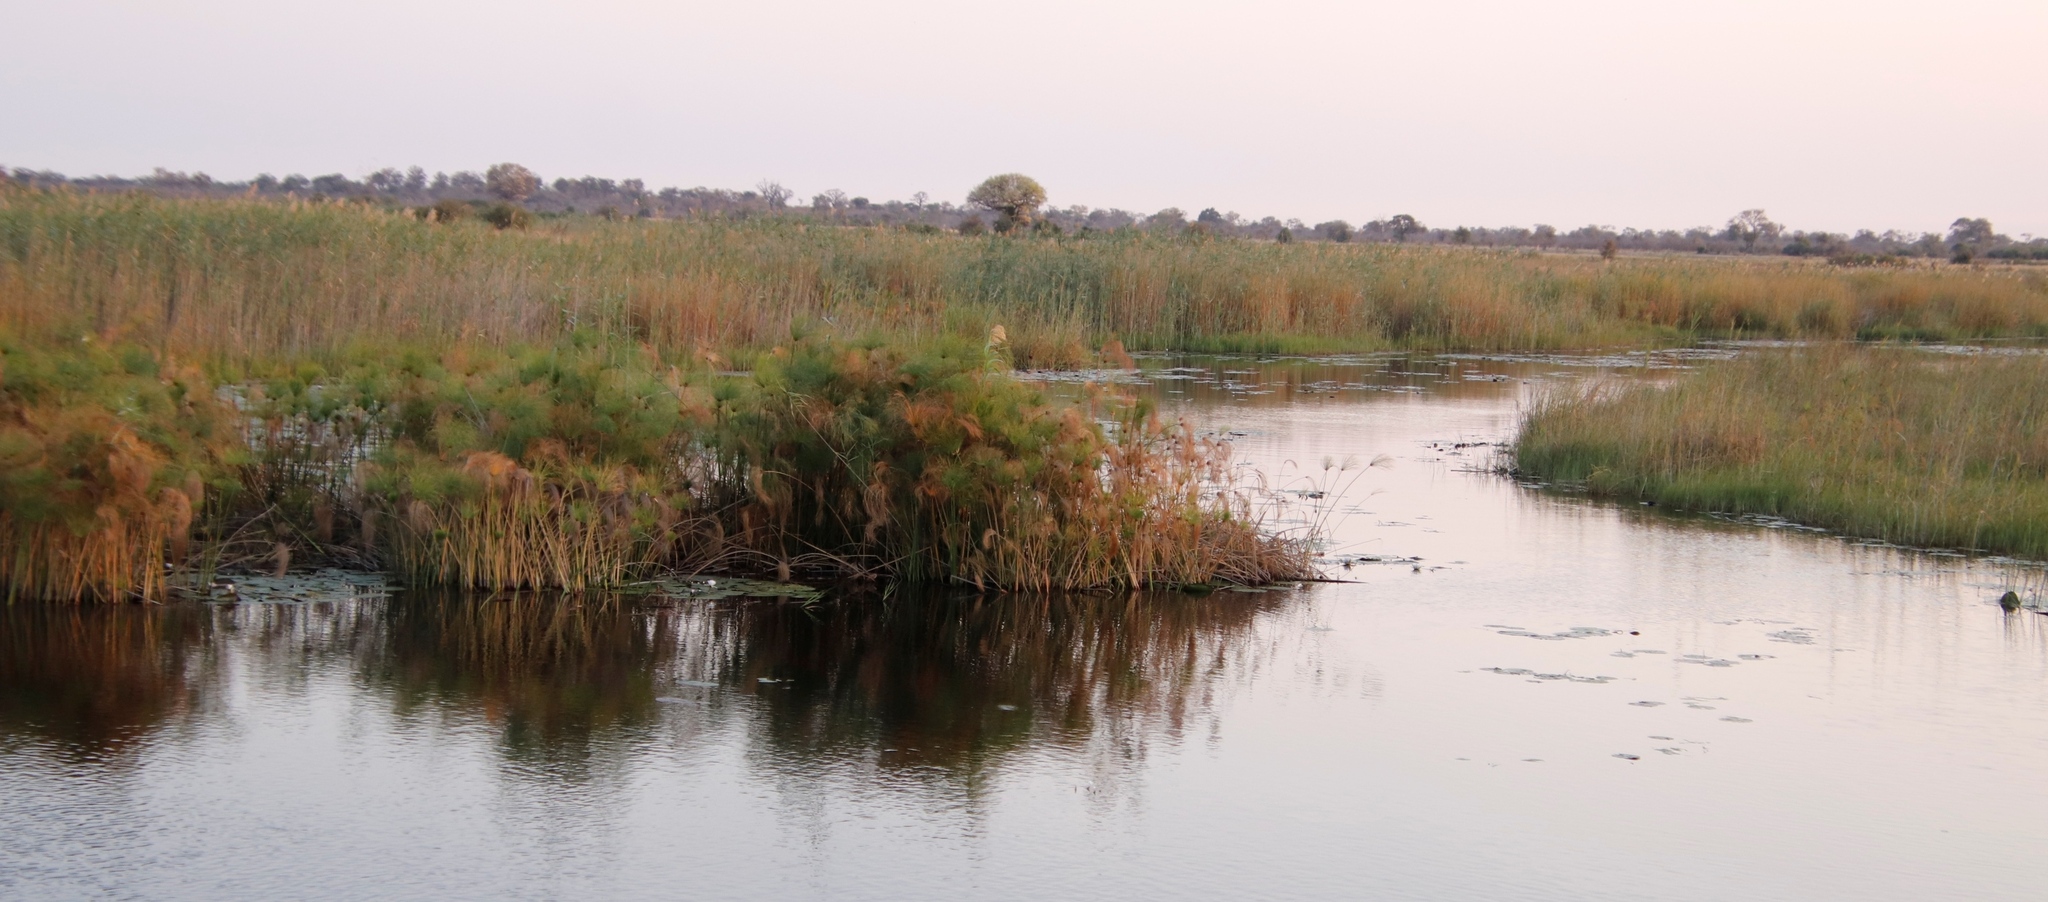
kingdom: Plantae
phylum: Tracheophyta
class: Liliopsida
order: Poales
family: Cyperaceae
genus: Cyperus
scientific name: Cyperus papyrus
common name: Papyrus
